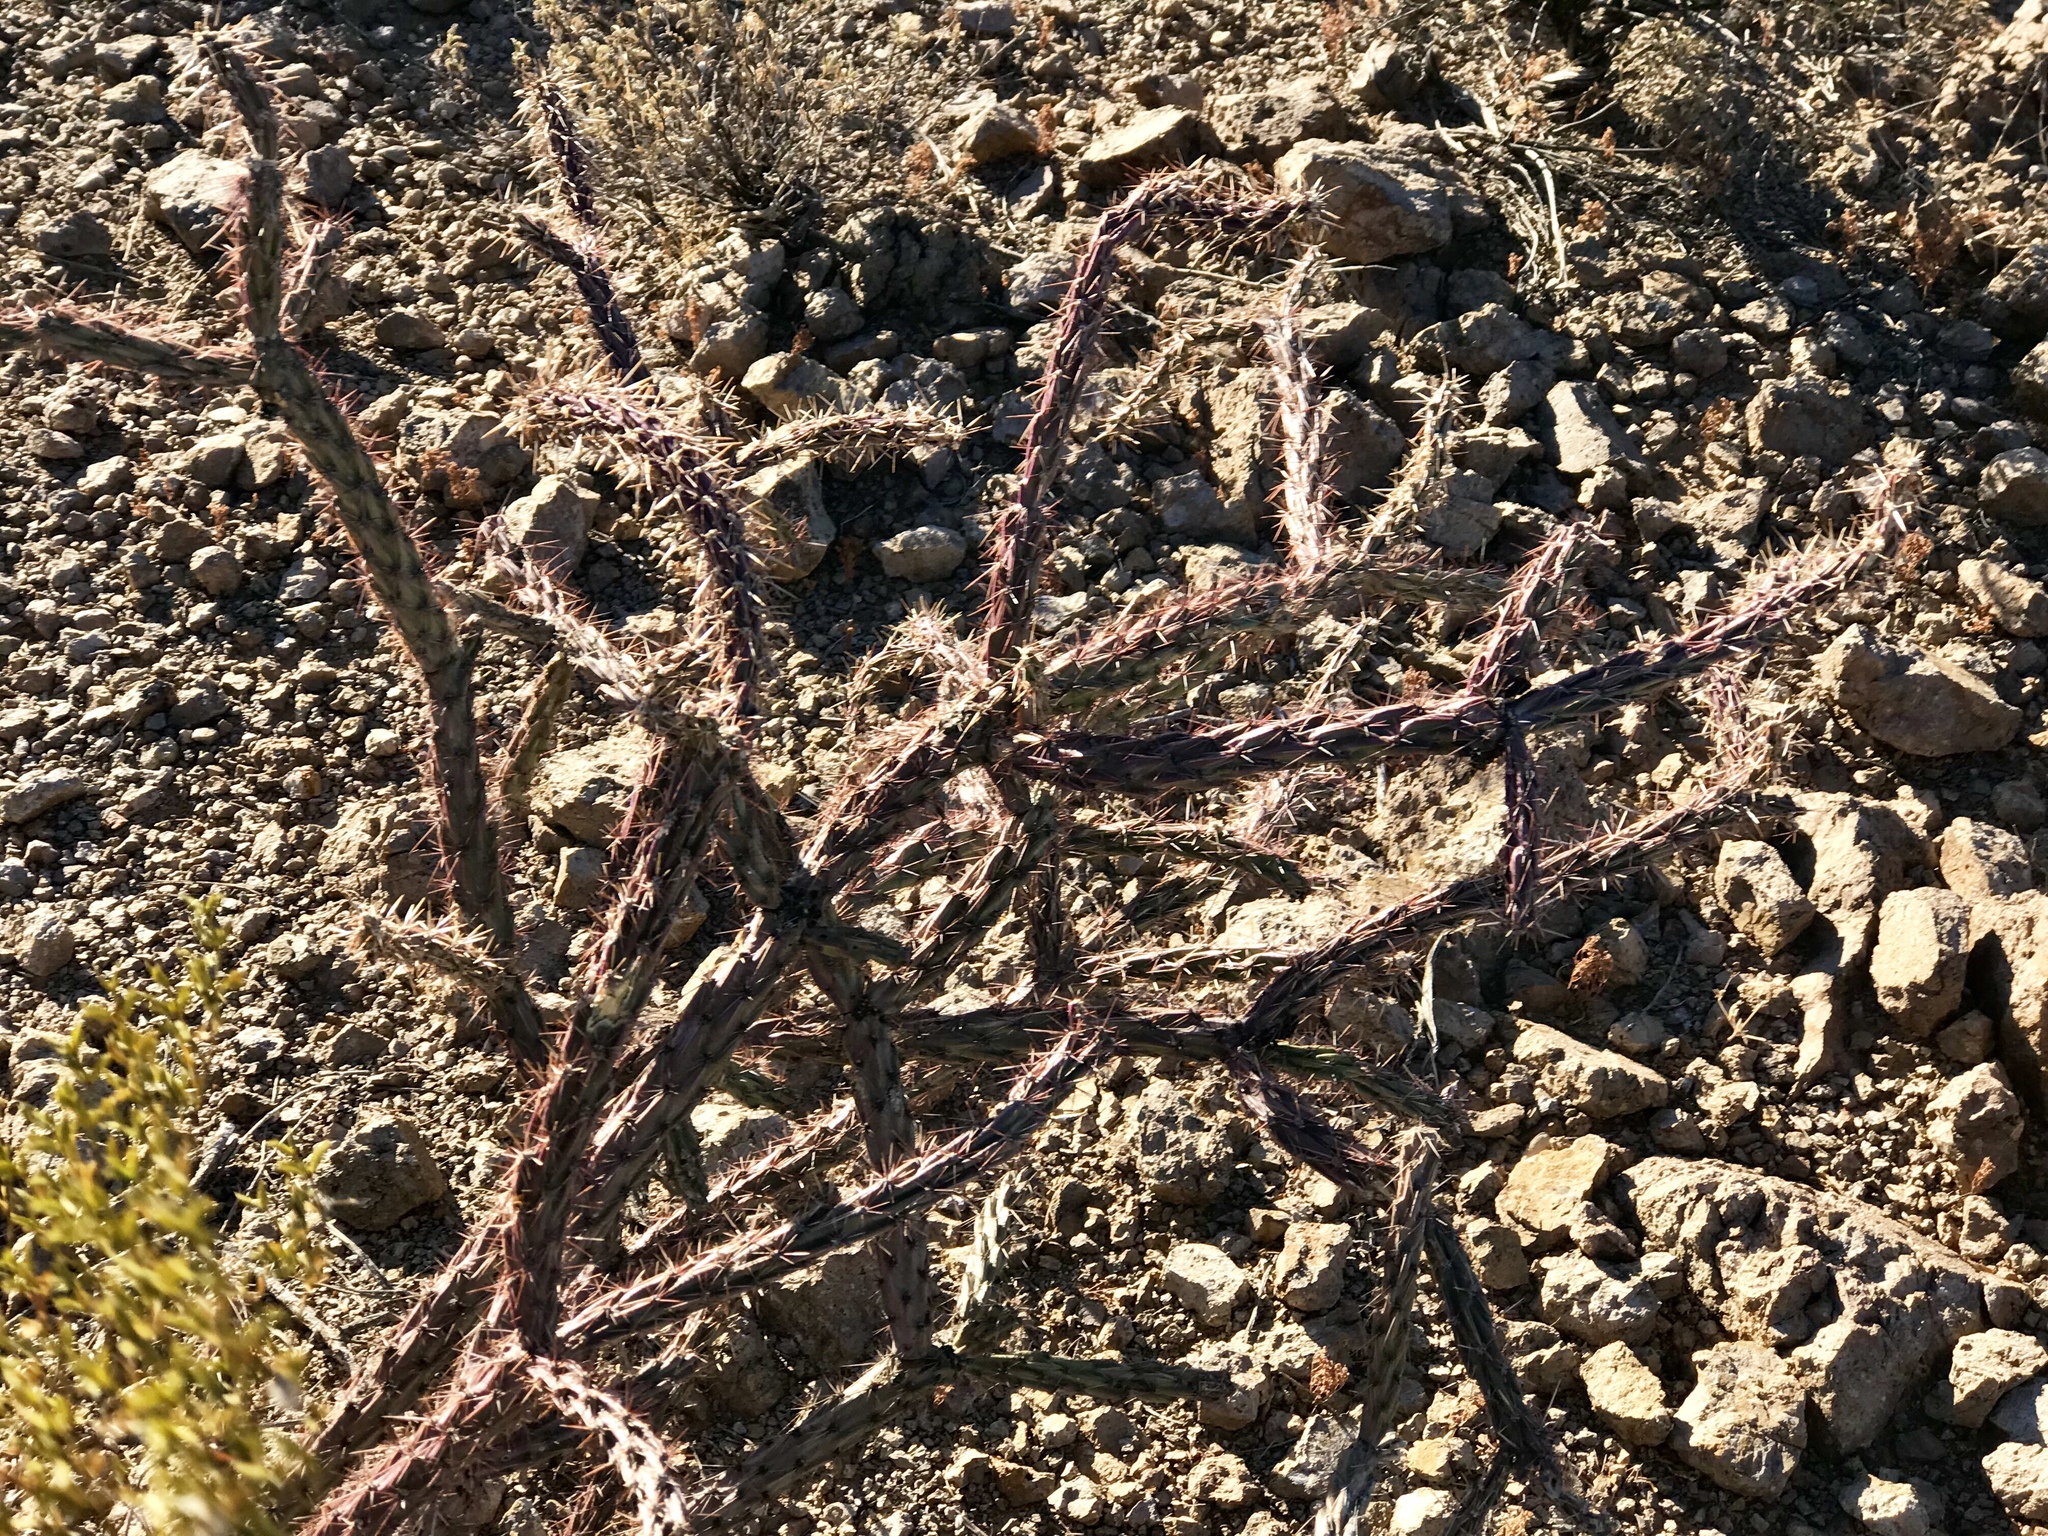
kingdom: Plantae
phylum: Tracheophyta
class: Magnoliopsida
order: Caryophyllales
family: Cactaceae
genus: Cylindropuntia
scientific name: Cylindropuntia thurberi
